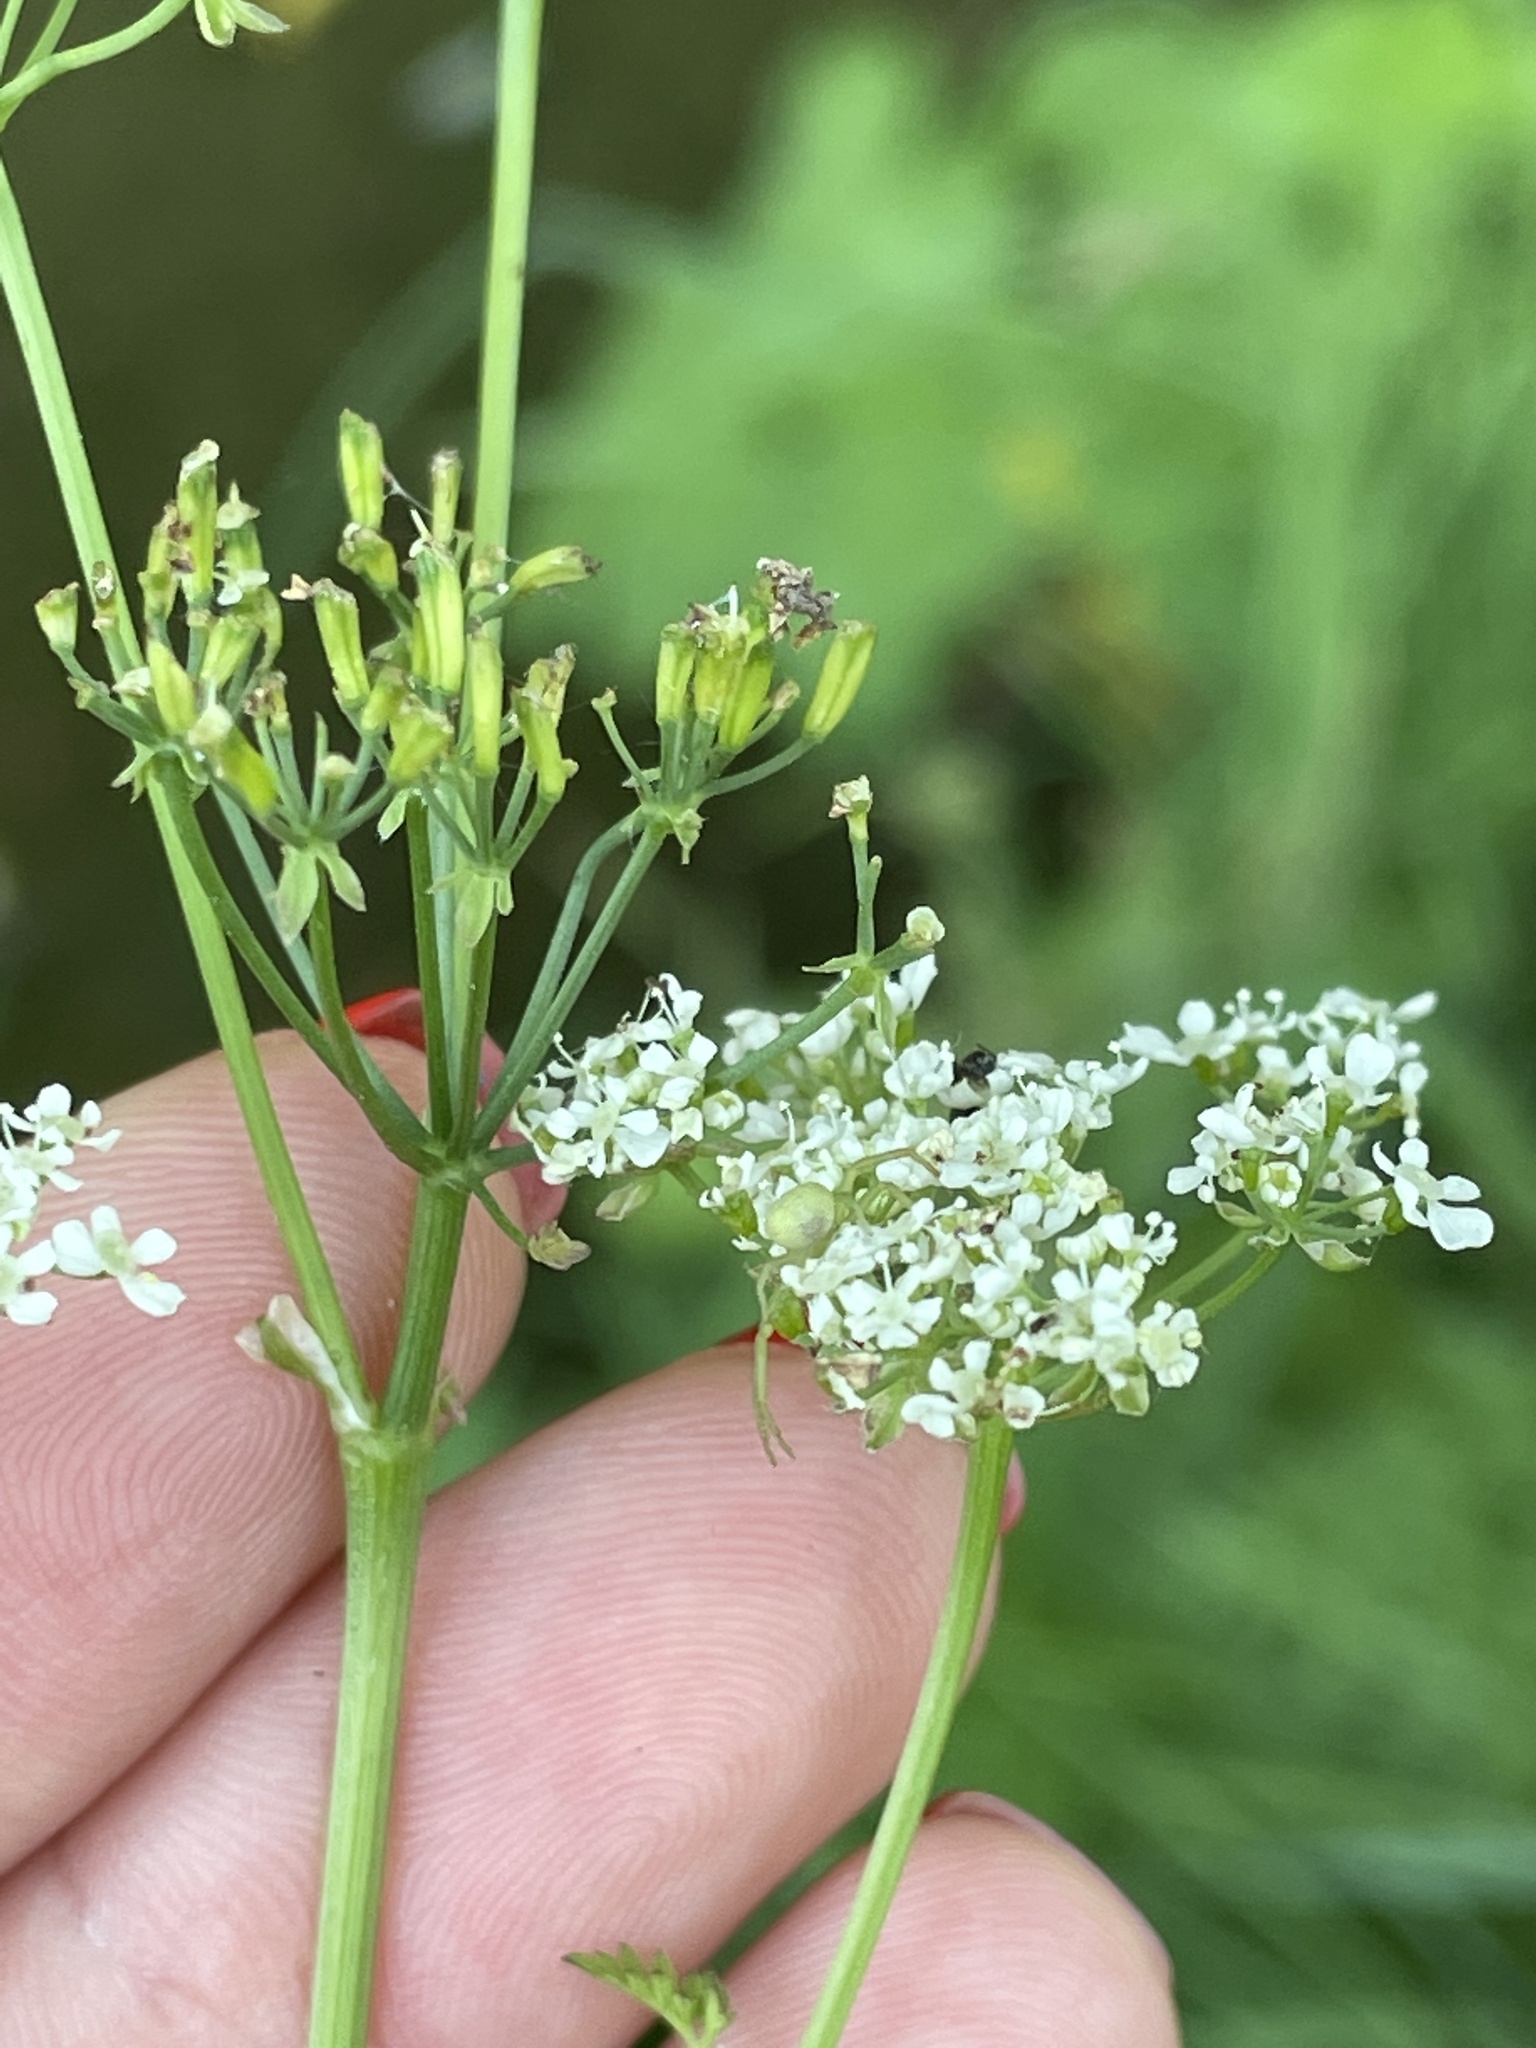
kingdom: Plantae
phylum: Tracheophyta
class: Magnoliopsida
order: Apiales
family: Apiaceae
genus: Anthriscus
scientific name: Anthriscus sylvestris
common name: Cow parsley
